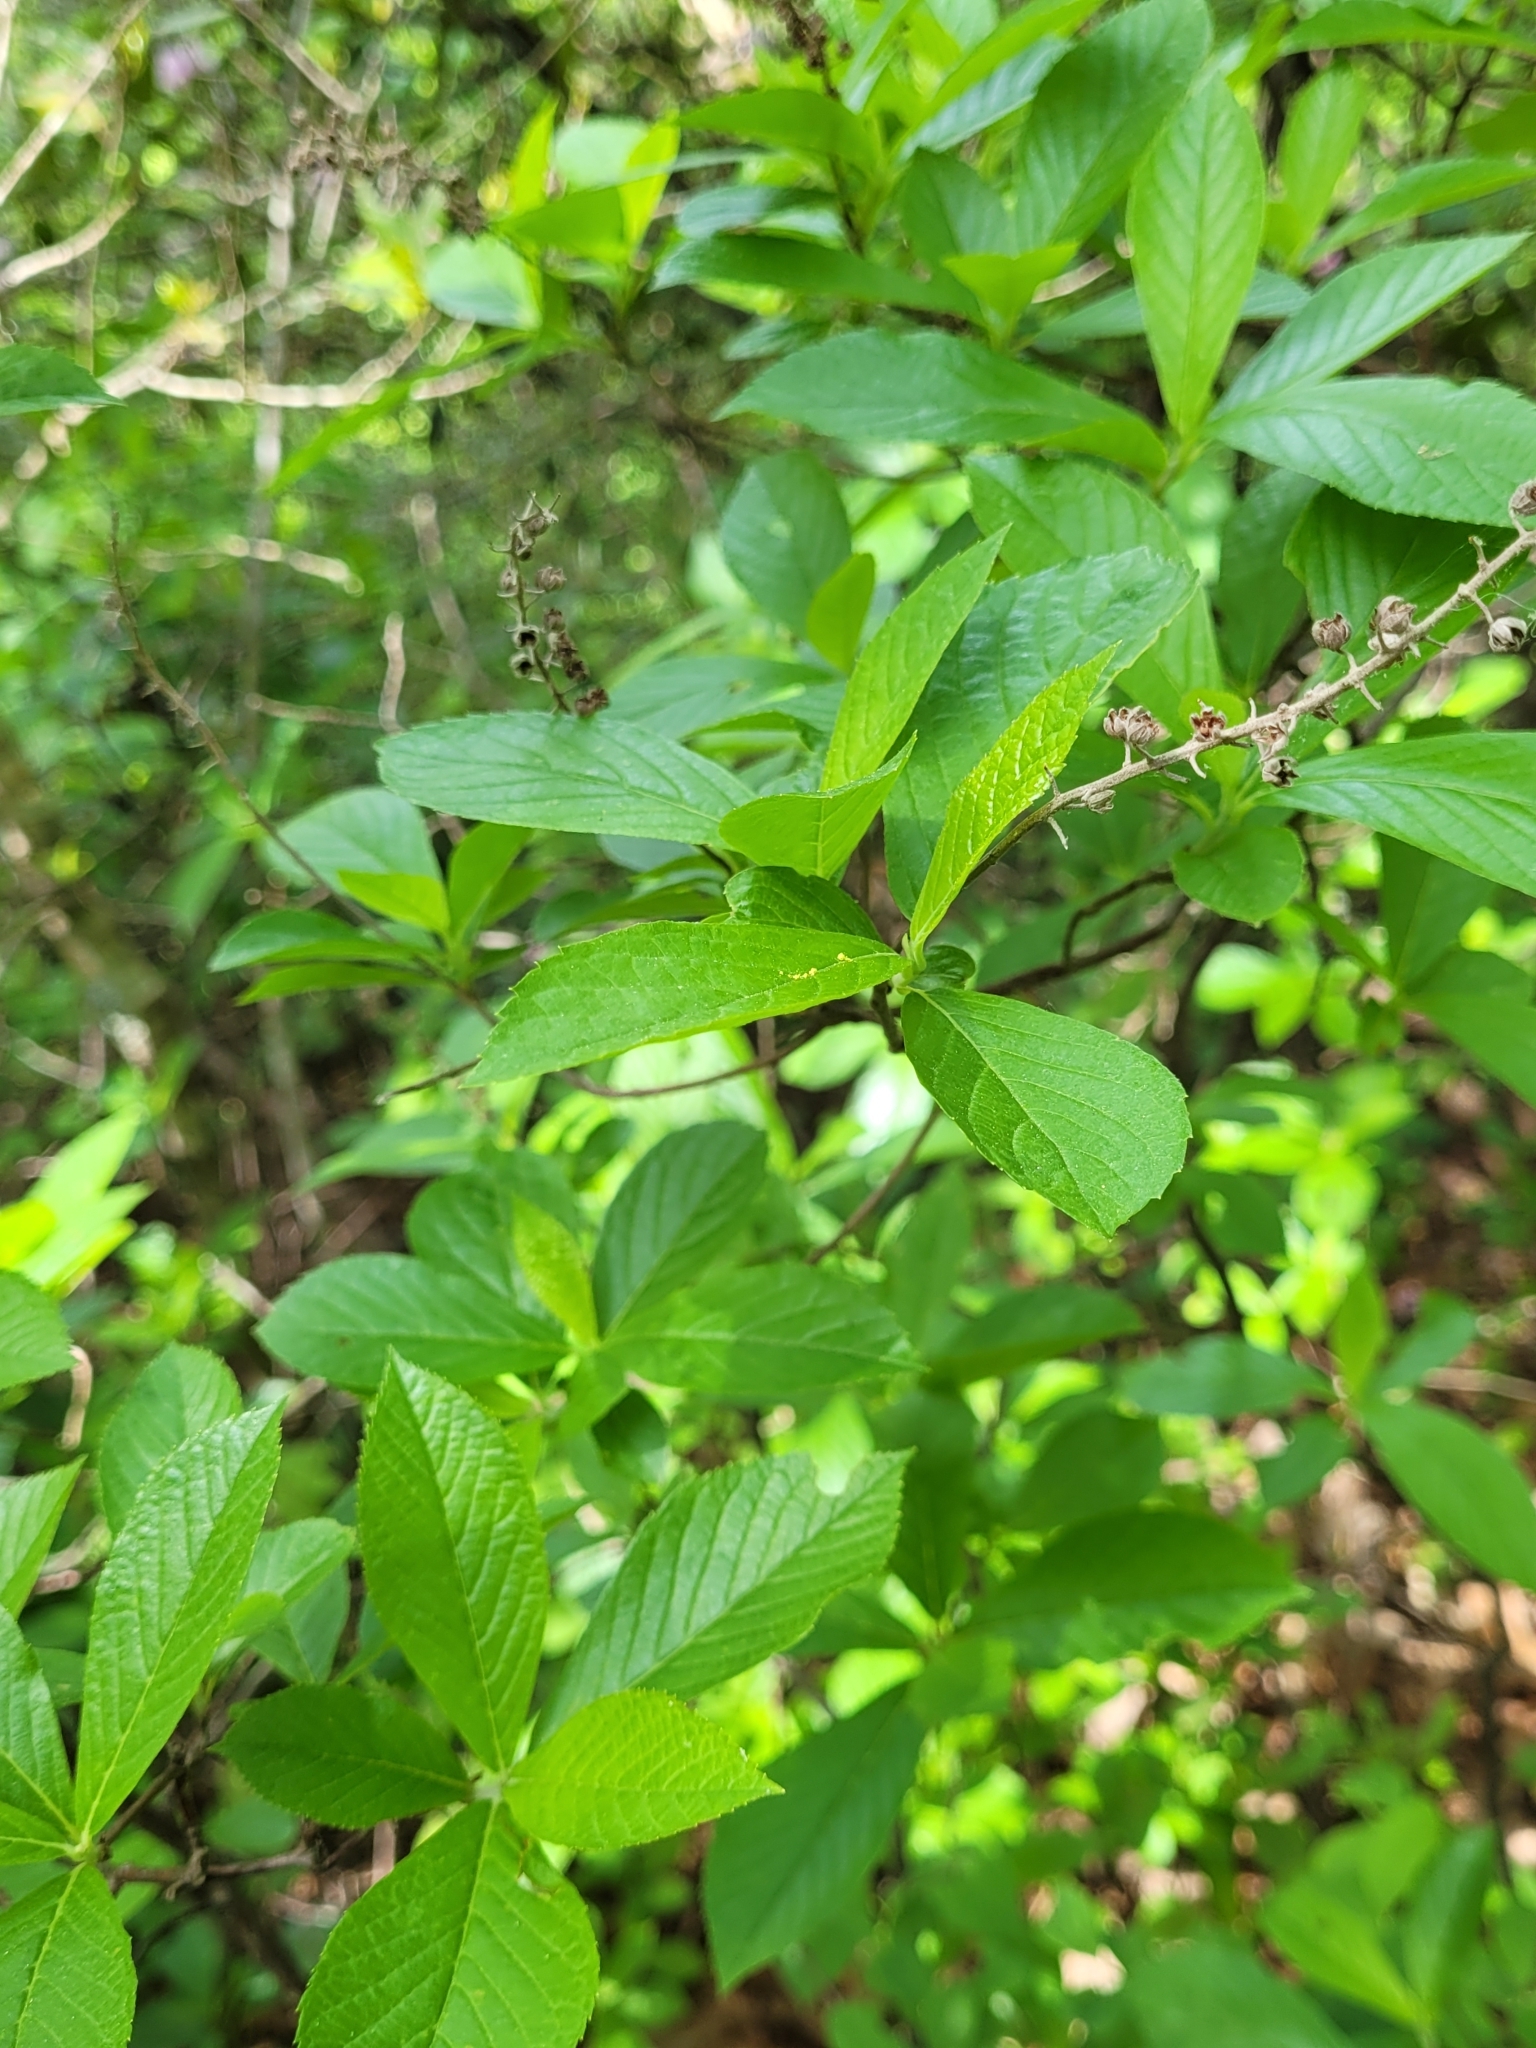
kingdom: Plantae
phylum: Tracheophyta
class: Magnoliopsida
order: Ericales
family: Clethraceae
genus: Clethra
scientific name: Clethra alnifolia
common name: Sweet pepperbush
